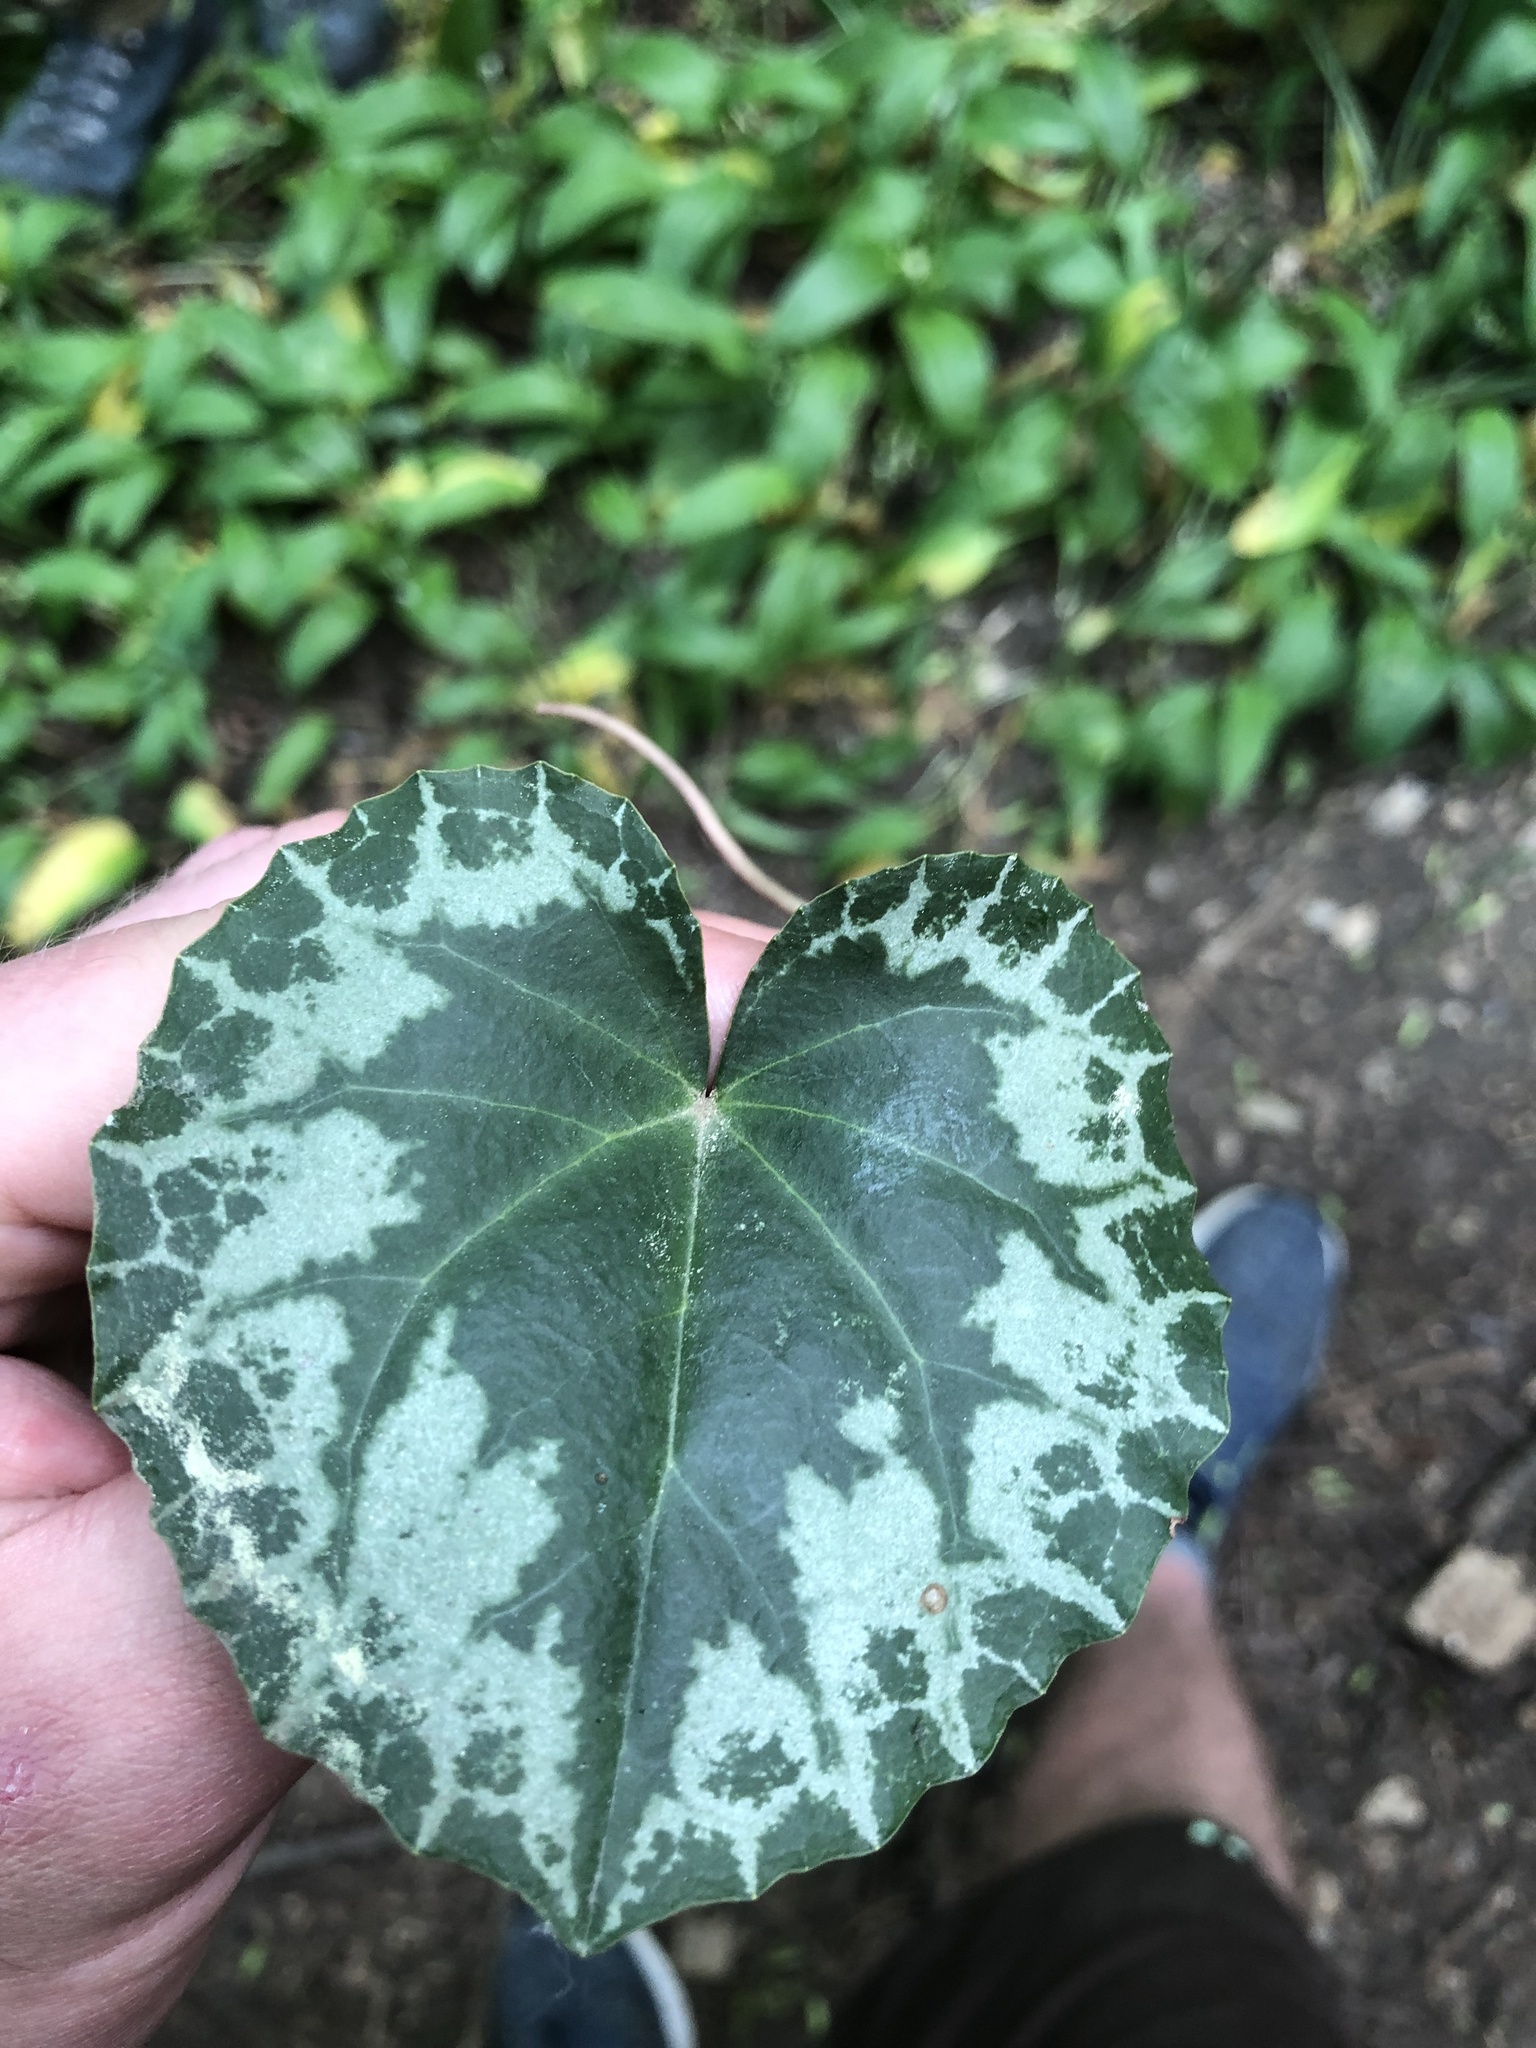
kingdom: Plantae
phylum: Tracheophyta
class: Magnoliopsida
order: Ericales
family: Primulaceae
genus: Cyclamen
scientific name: Cyclamen purpurascens
